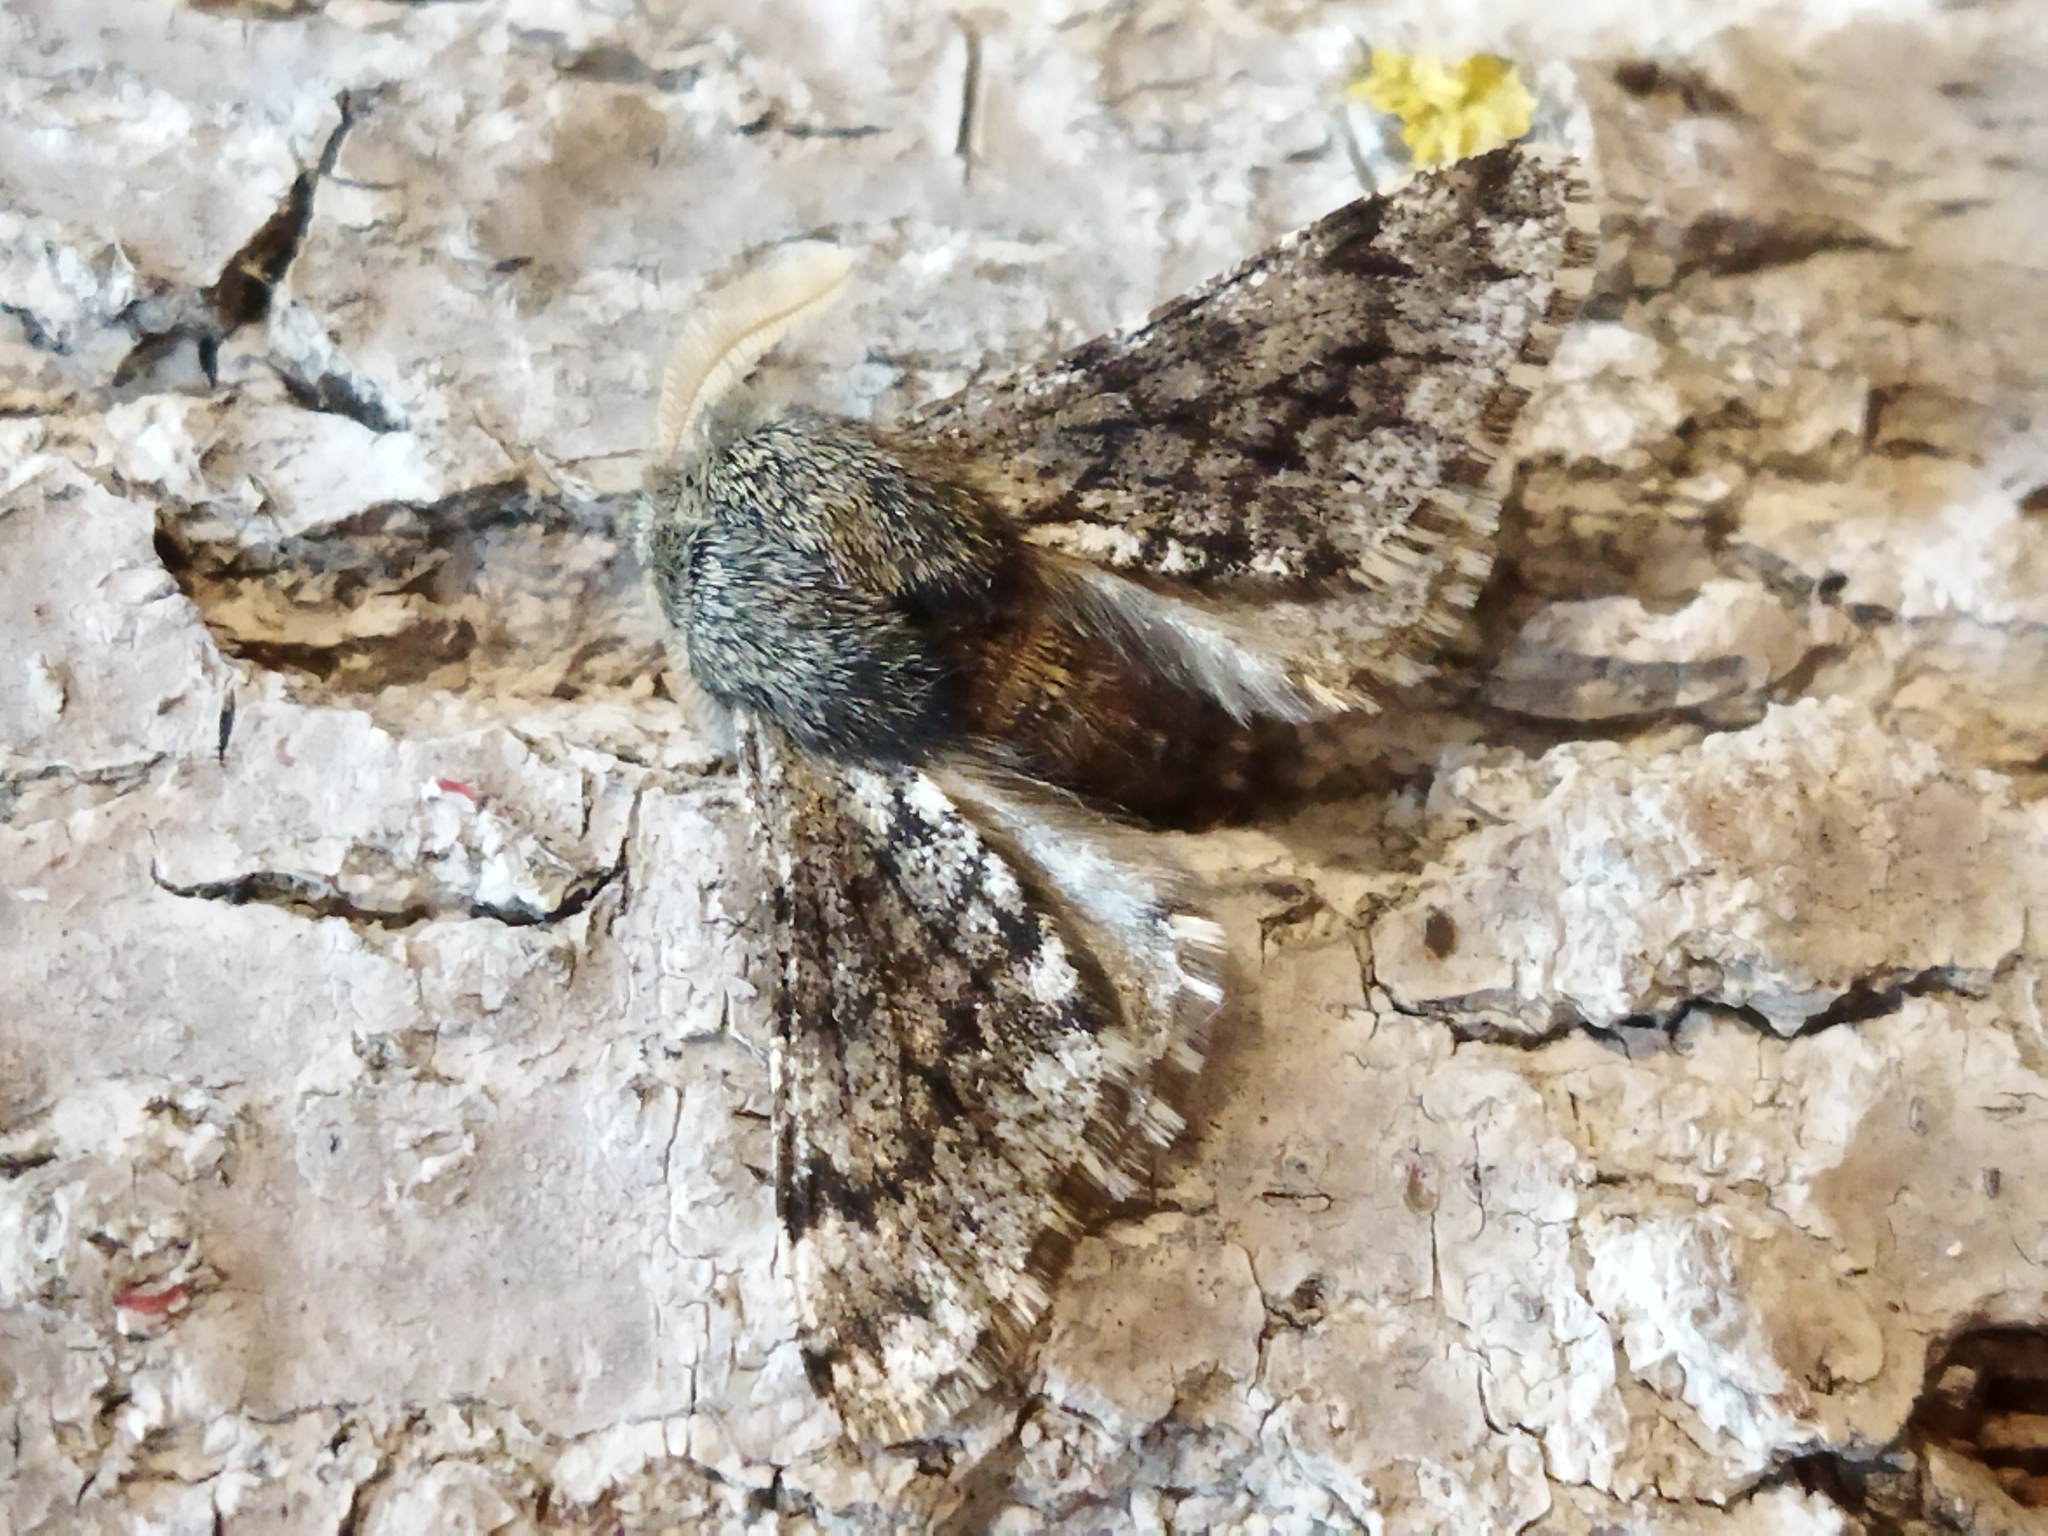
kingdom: Animalia
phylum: Arthropoda
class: Insecta
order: Lepidoptera
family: Geometridae
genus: Apocheima
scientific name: Apocheima hispidaria
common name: Small brindled beauty
